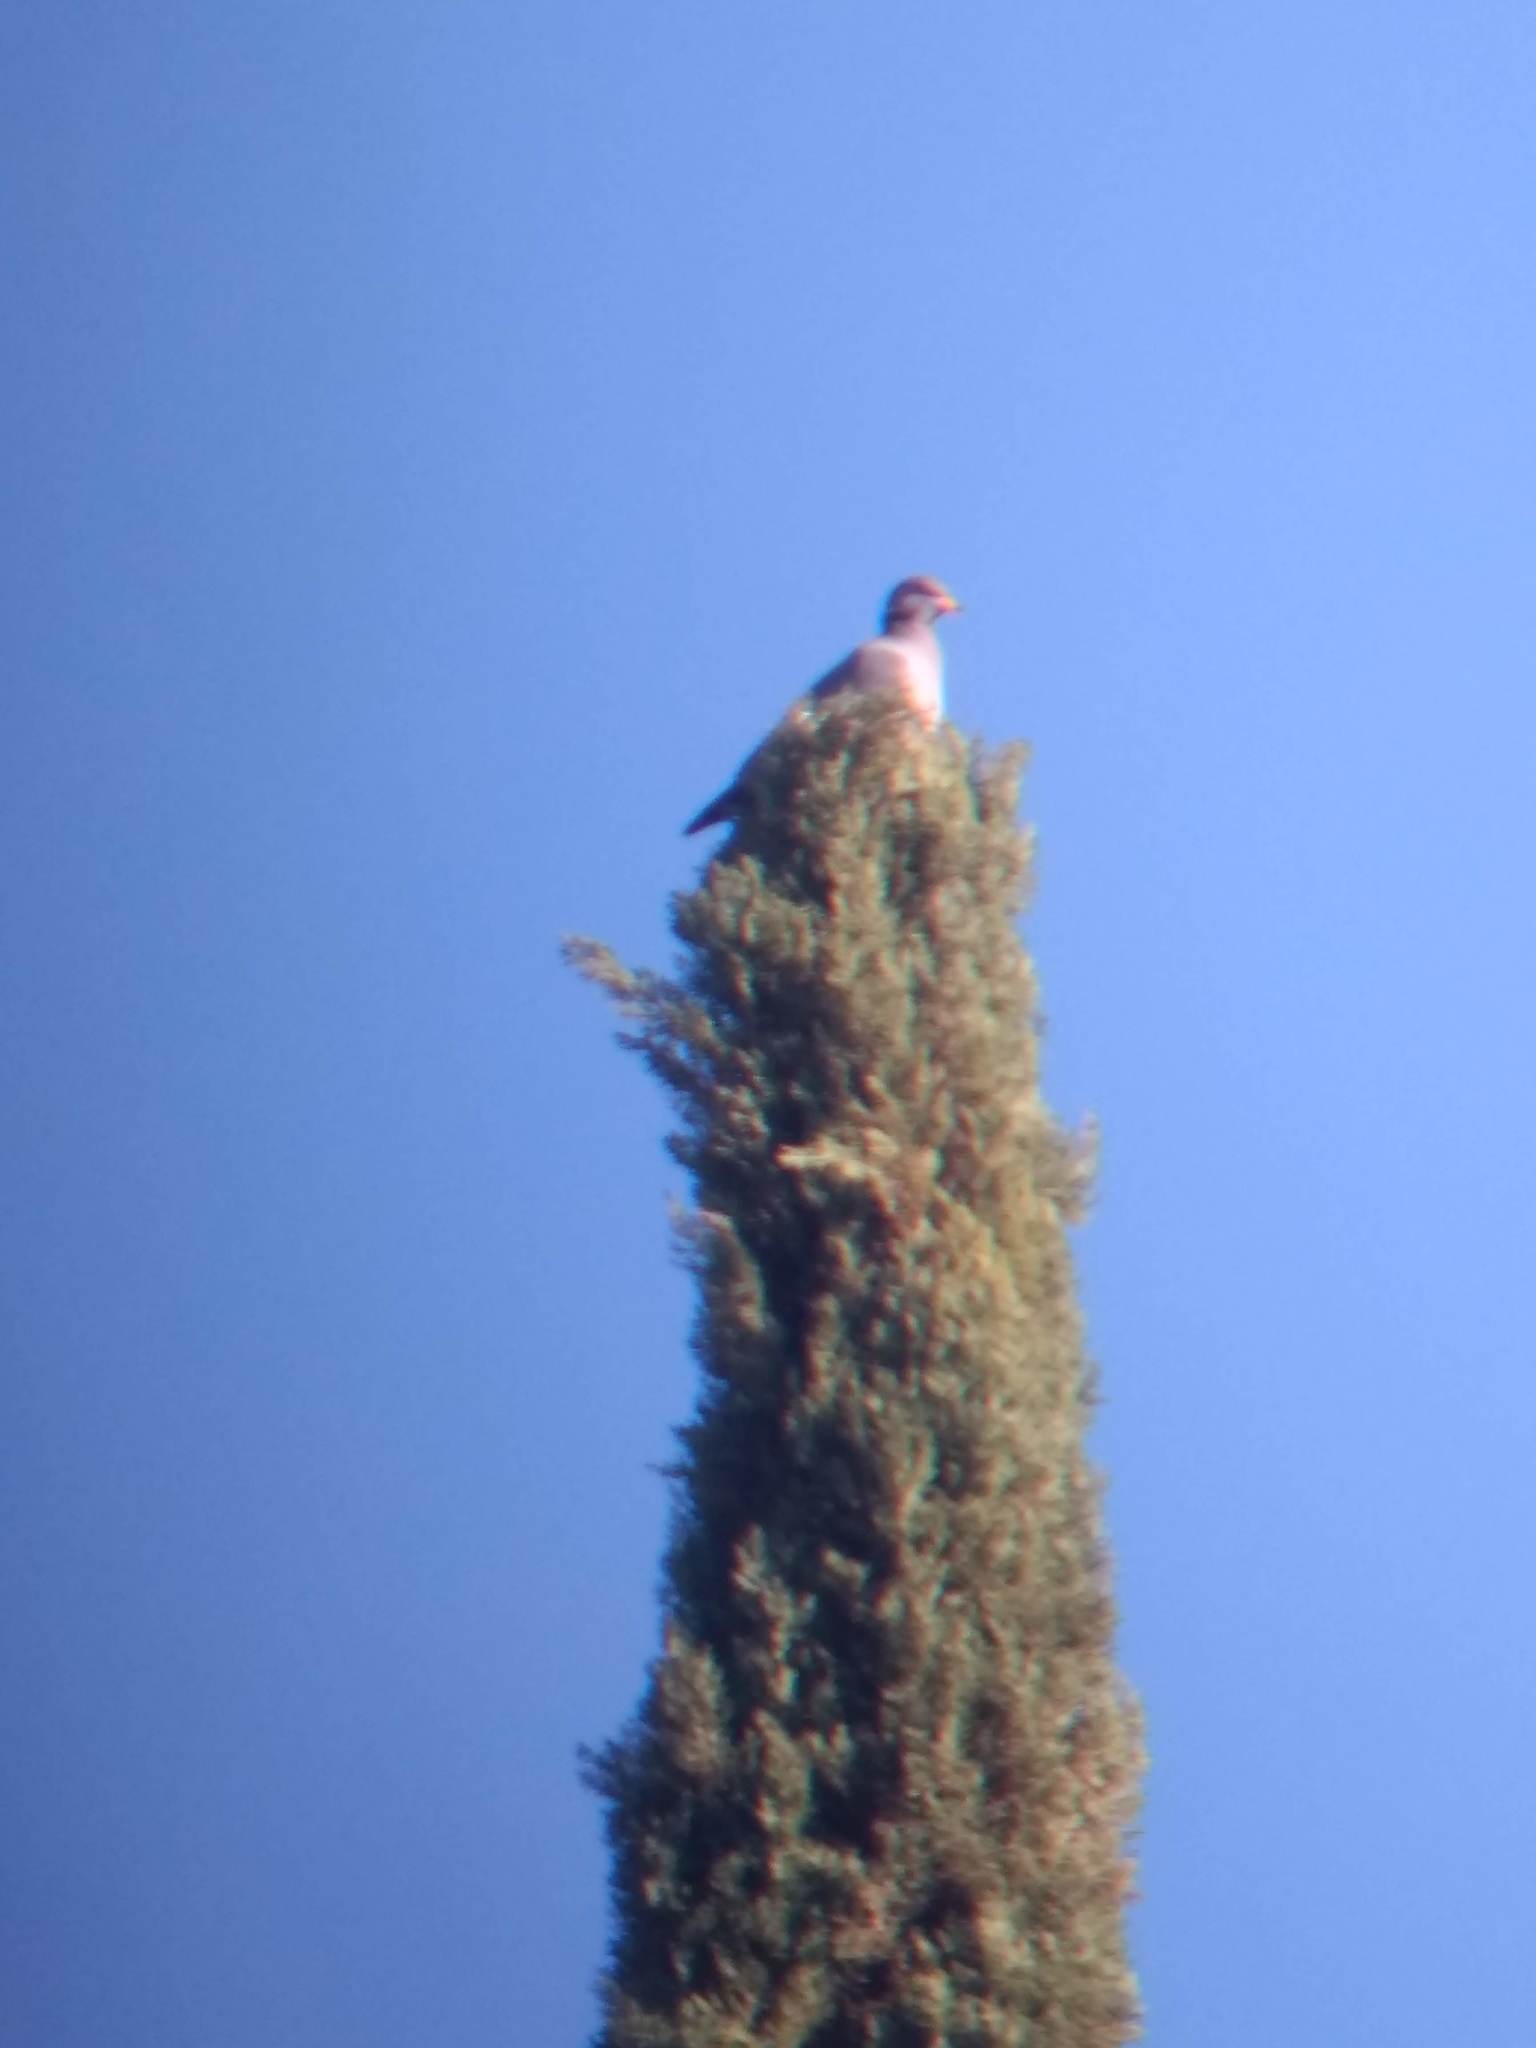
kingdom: Animalia
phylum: Chordata
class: Aves
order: Columbiformes
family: Columbidae
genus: Patagioenas
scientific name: Patagioenas fasciata
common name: Band-tailed pigeon
